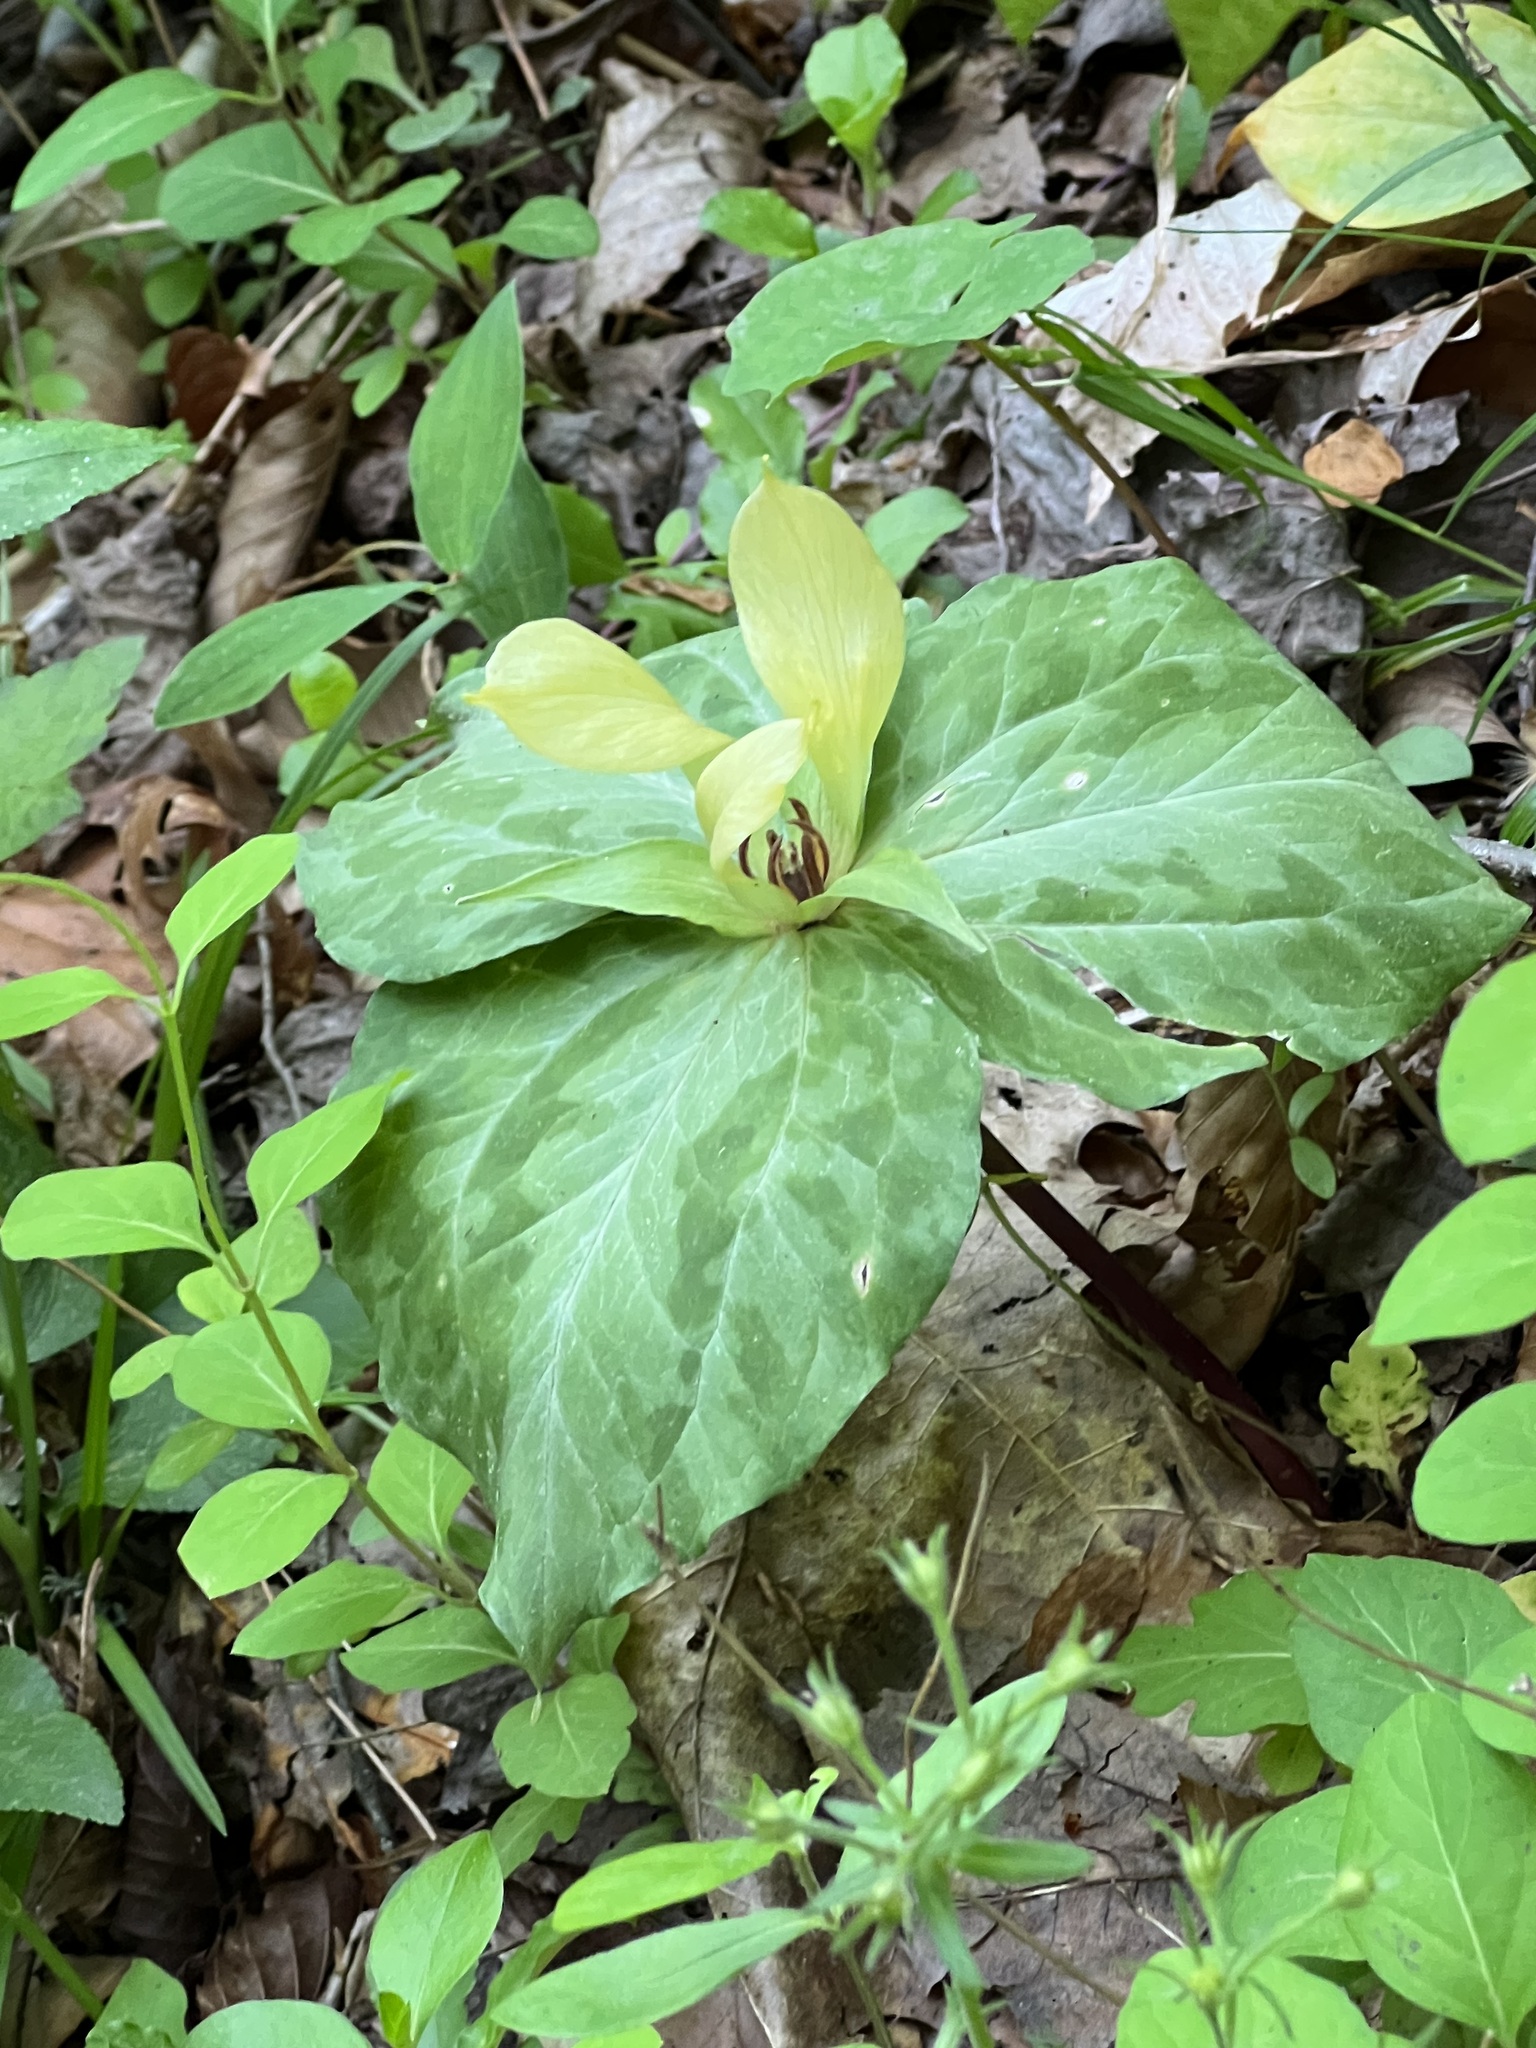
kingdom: Plantae
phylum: Tracheophyta
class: Liliopsida
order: Liliales
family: Melanthiaceae
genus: Trillium
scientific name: Trillium discolor
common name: Faded trillium
